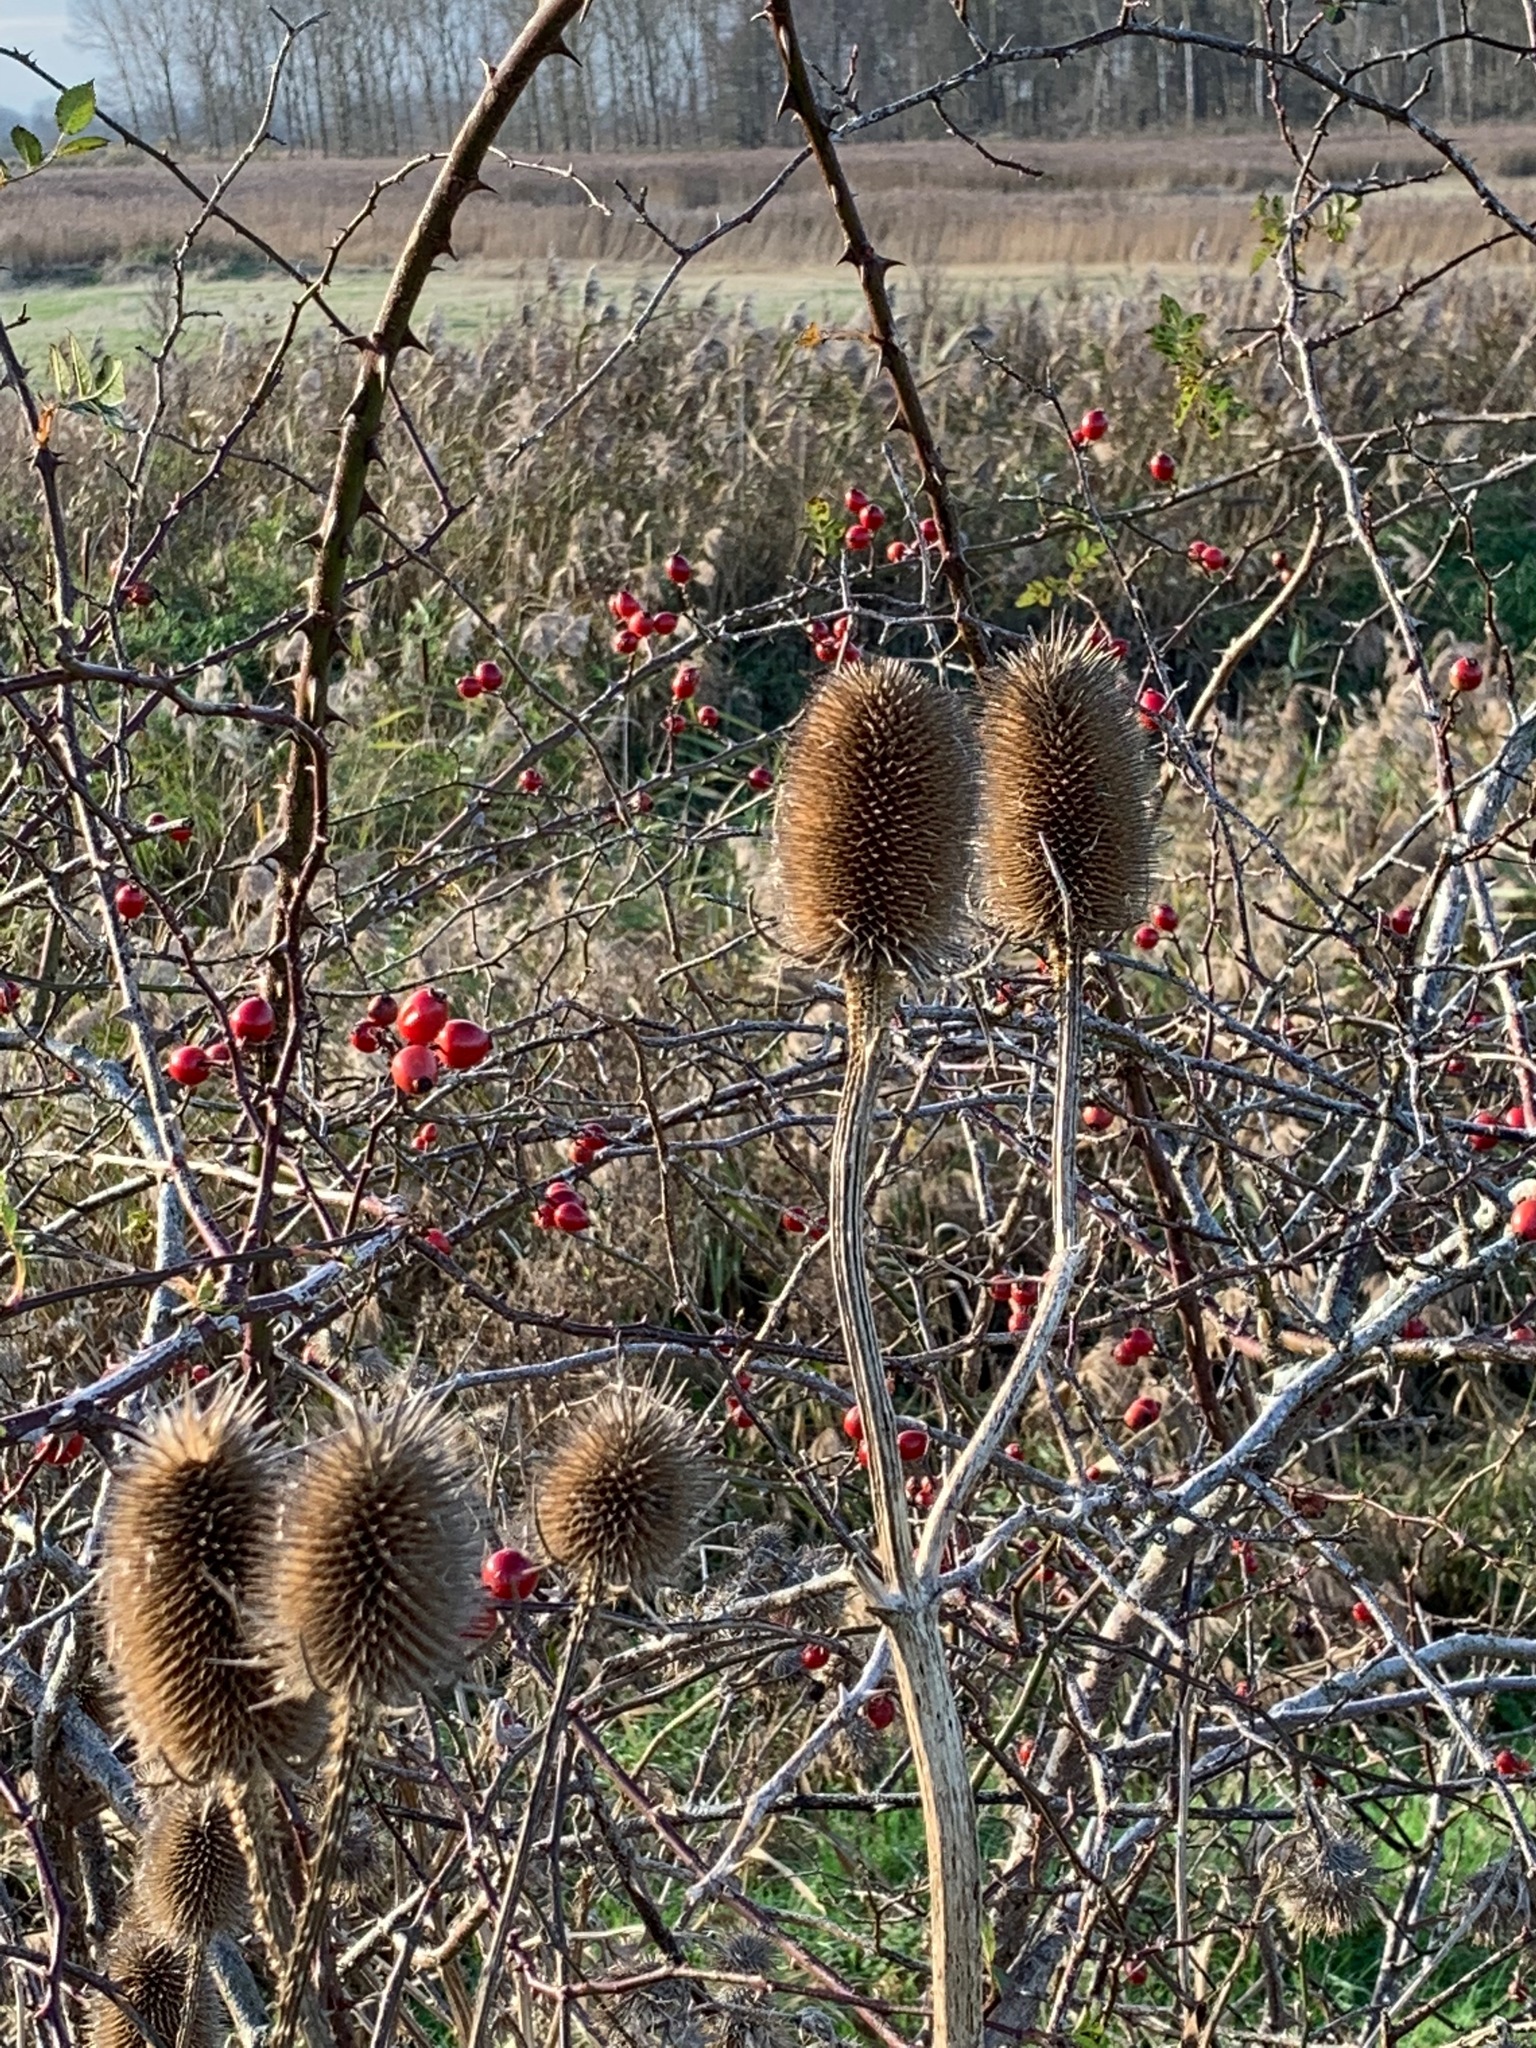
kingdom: Plantae
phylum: Tracheophyta
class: Magnoliopsida
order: Dipsacales
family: Caprifoliaceae
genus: Dipsacus
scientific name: Dipsacus fullonum
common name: Teasel
